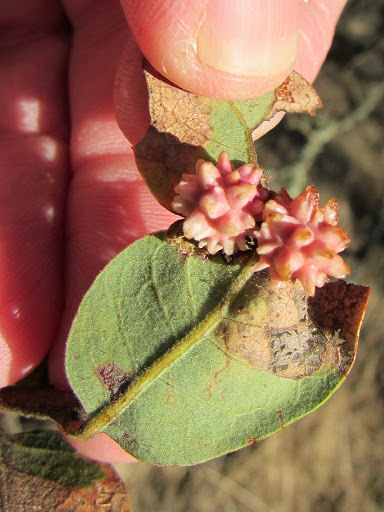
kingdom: Animalia
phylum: Arthropoda
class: Insecta
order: Hymenoptera
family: Cynipidae
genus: Cynips
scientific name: Cynips
